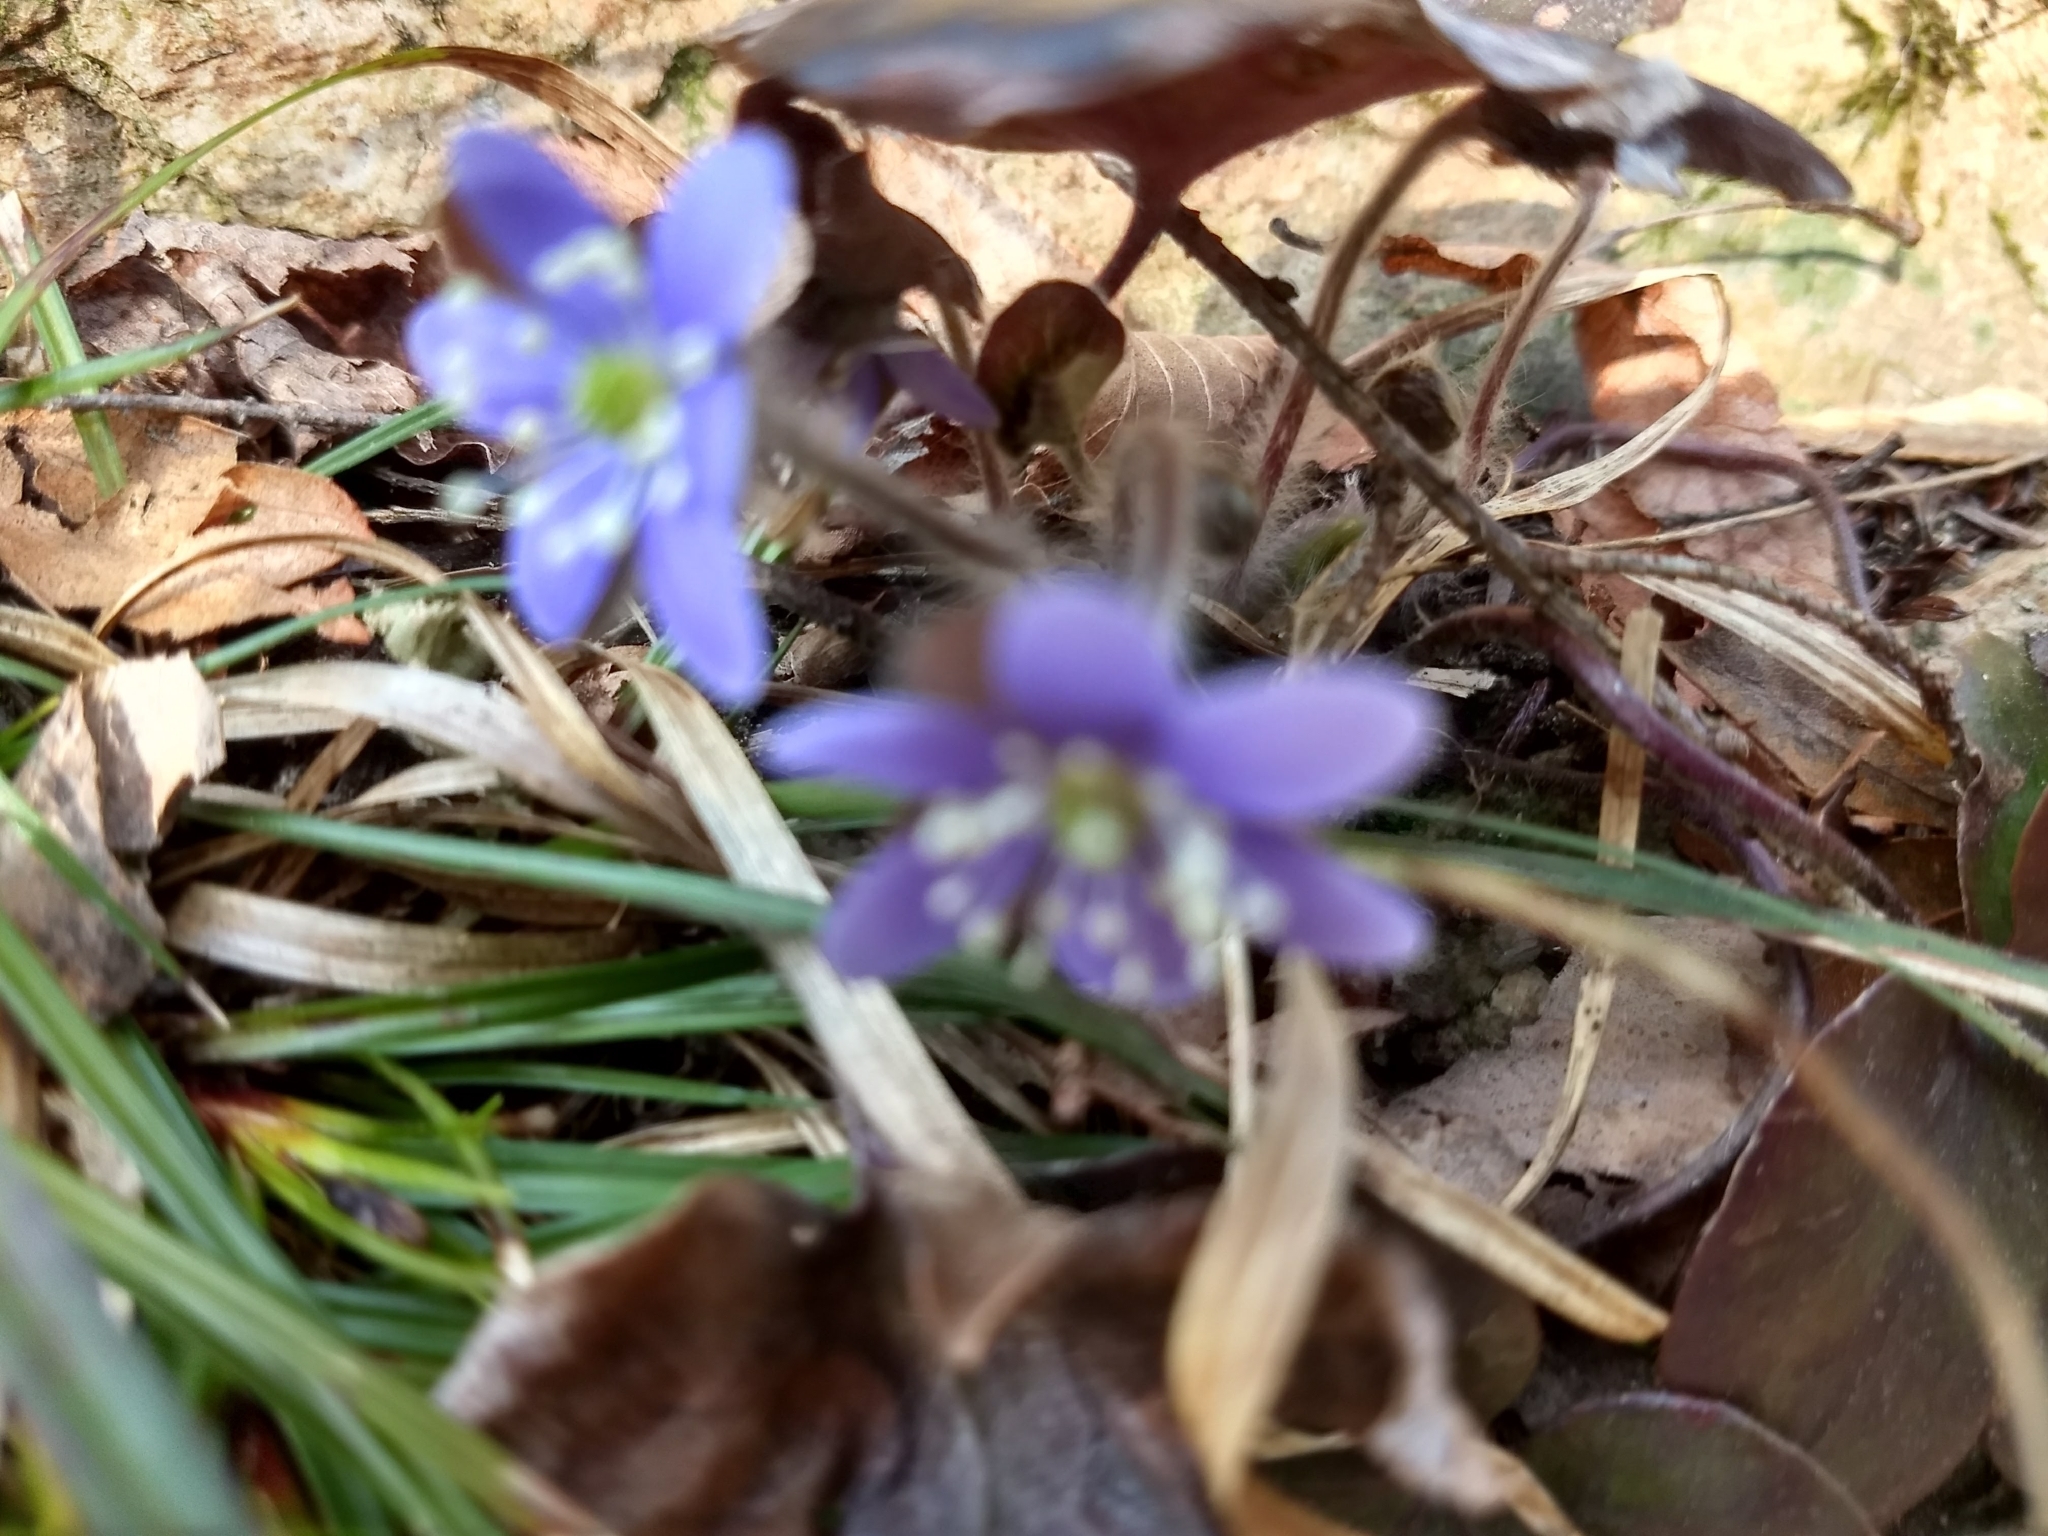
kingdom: Plantae
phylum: Tracheophyta
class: Magnoliopsida
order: Ranunculales
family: Ranunculaceae
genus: Hepatica
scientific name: Hepatica
